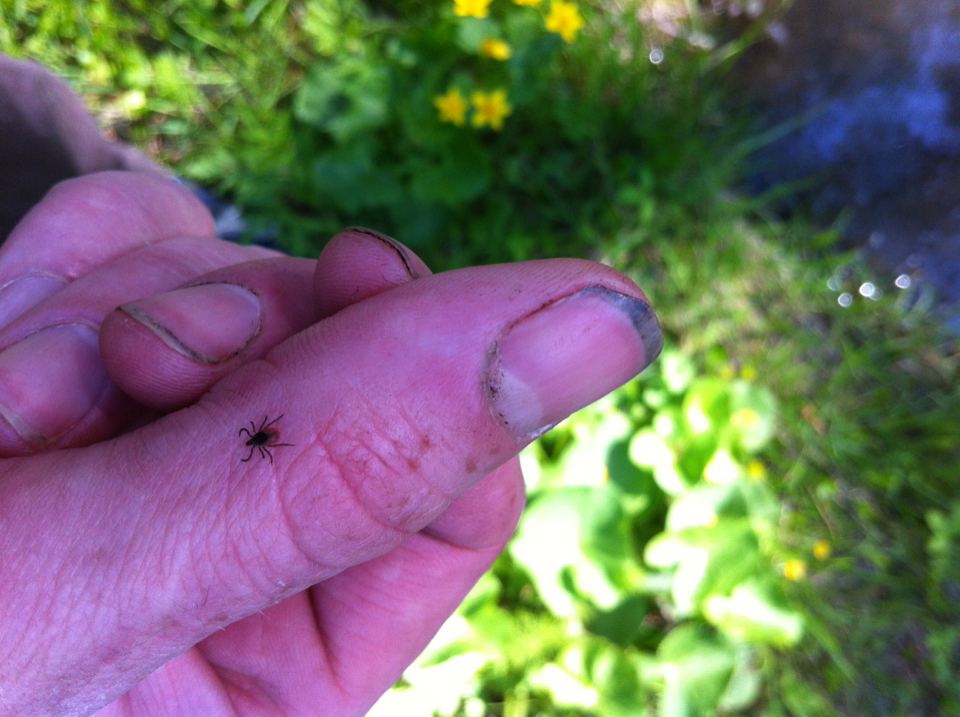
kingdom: Animalia
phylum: Arthropoda
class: Arachnida
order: Ixodida
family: Ixodidae
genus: Ixodes
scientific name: Ixodes scapularis
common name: Black legged tick
